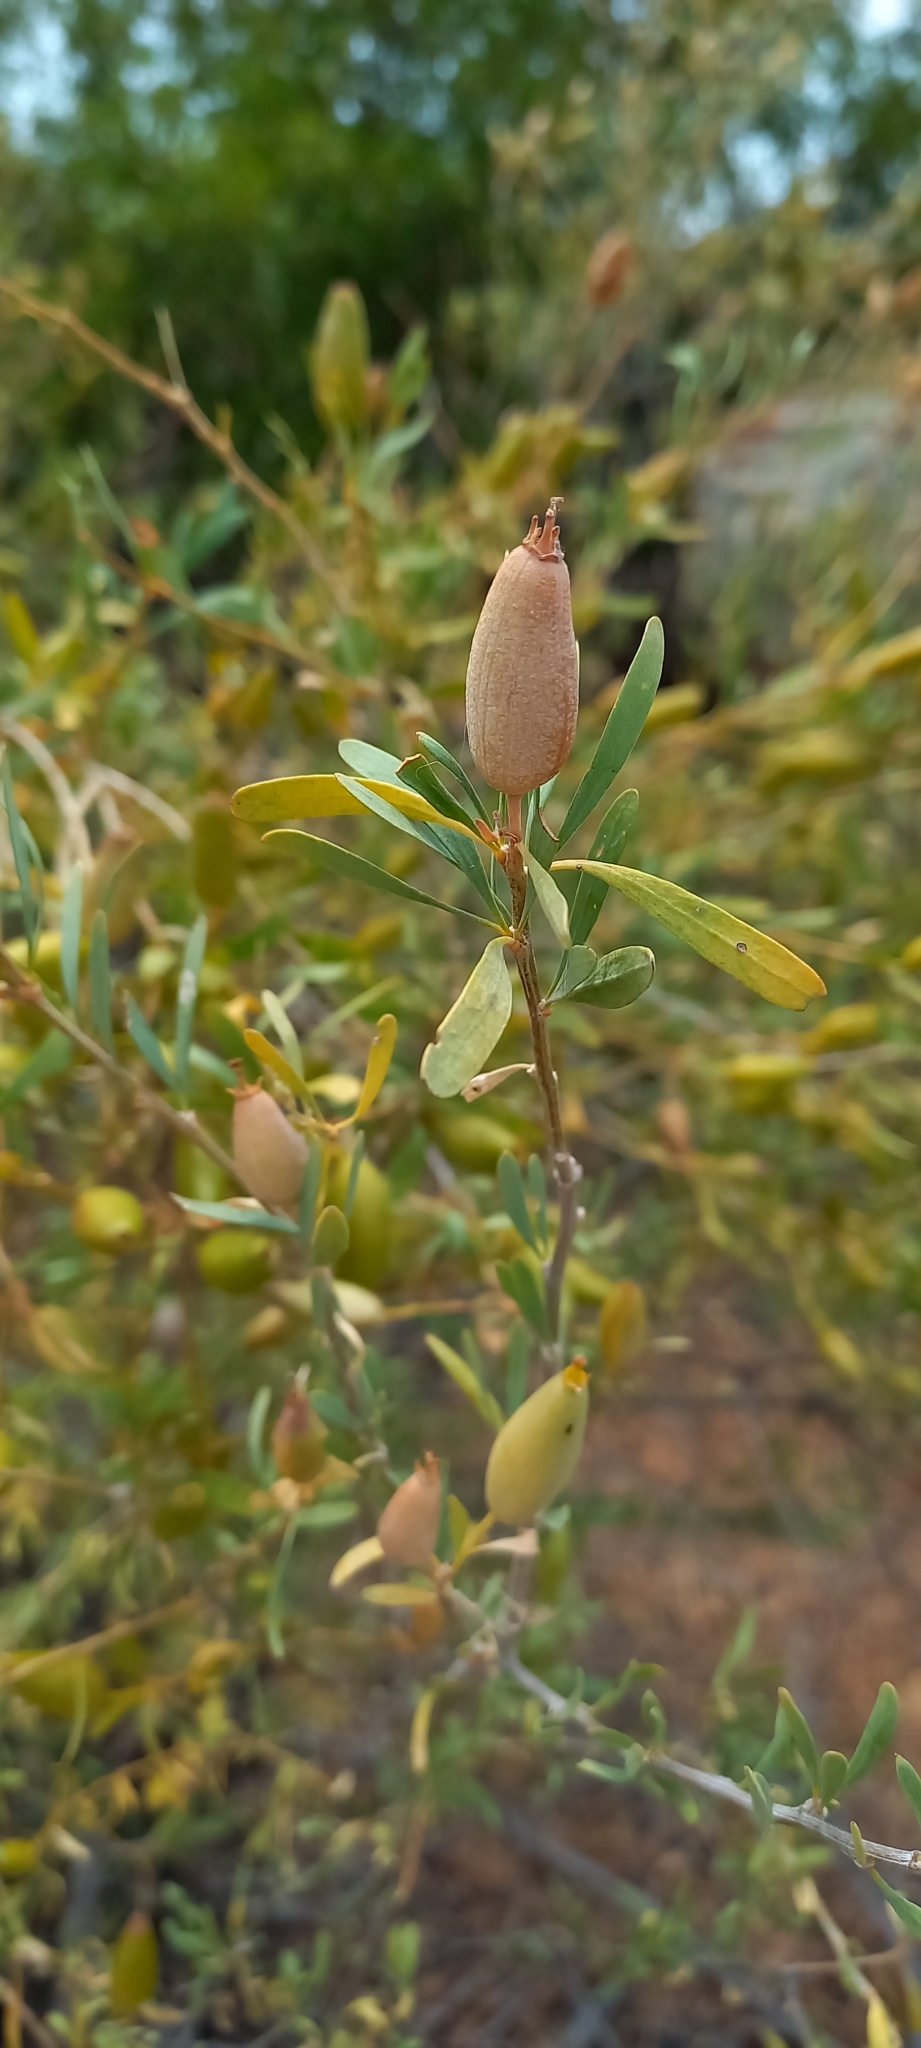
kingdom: Plantae
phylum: Tracheophyta
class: Magnoliopsida
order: Solanales
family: Montiniaceae
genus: Montinia
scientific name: Montinia caryophyllacea
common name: Wild clove-bush
